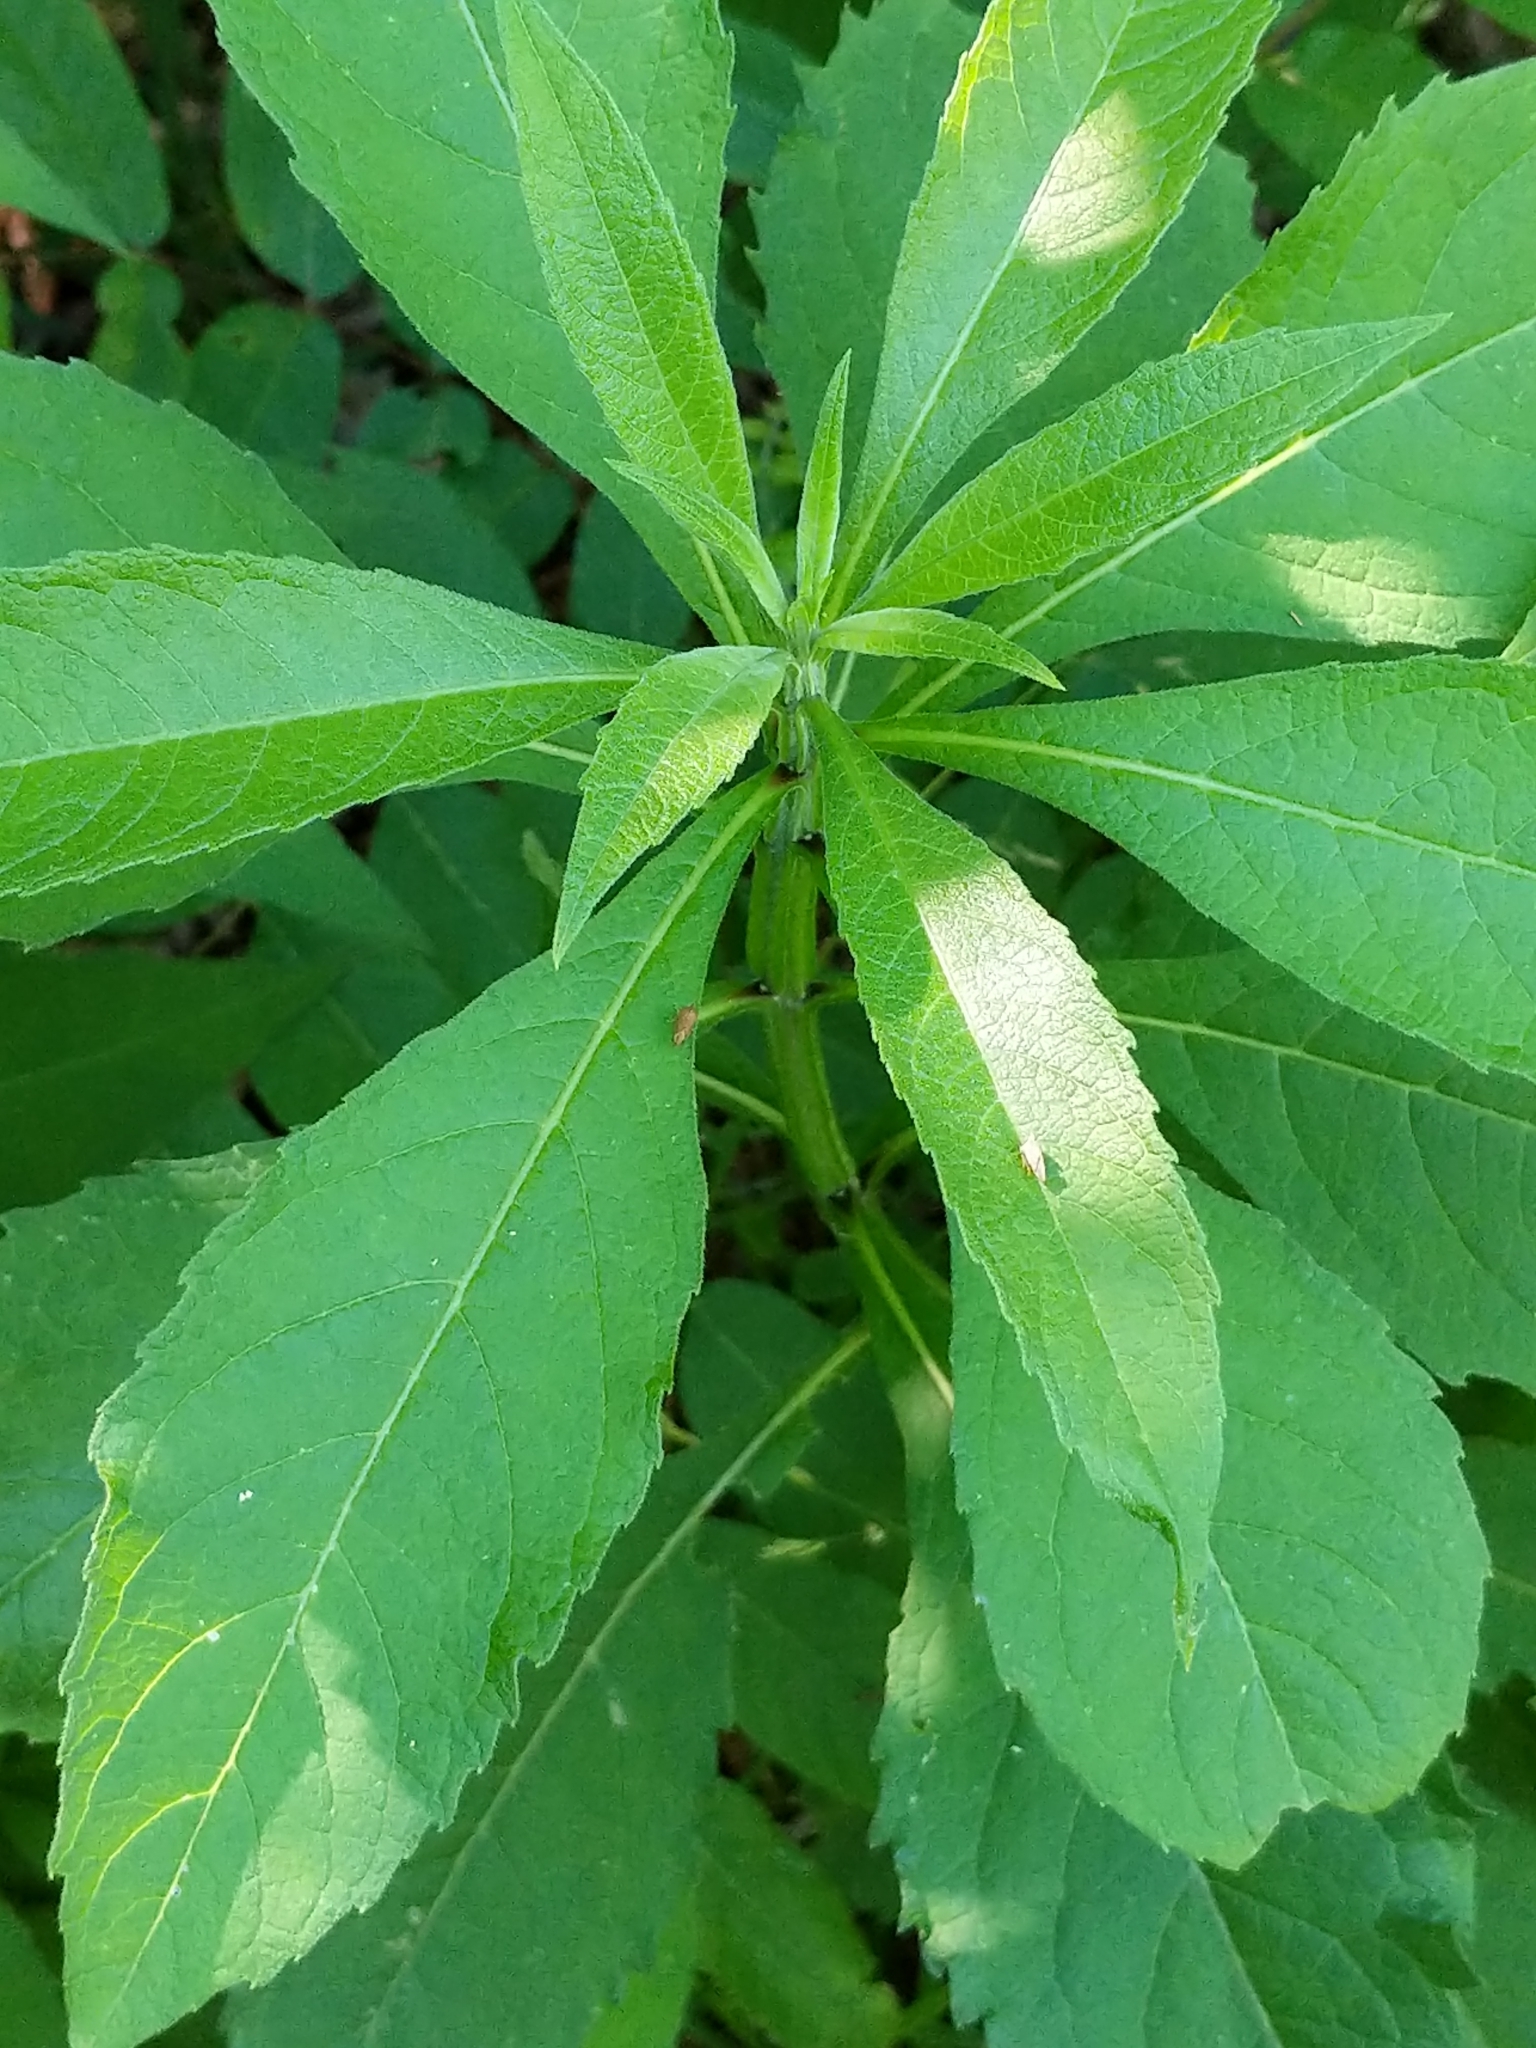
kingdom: Plantae
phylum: Tracheophyta
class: Magnoliopsida
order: Asterales
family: Asteraceae
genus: Verbesina
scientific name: Verbesina alternifolia
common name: Wingstem
